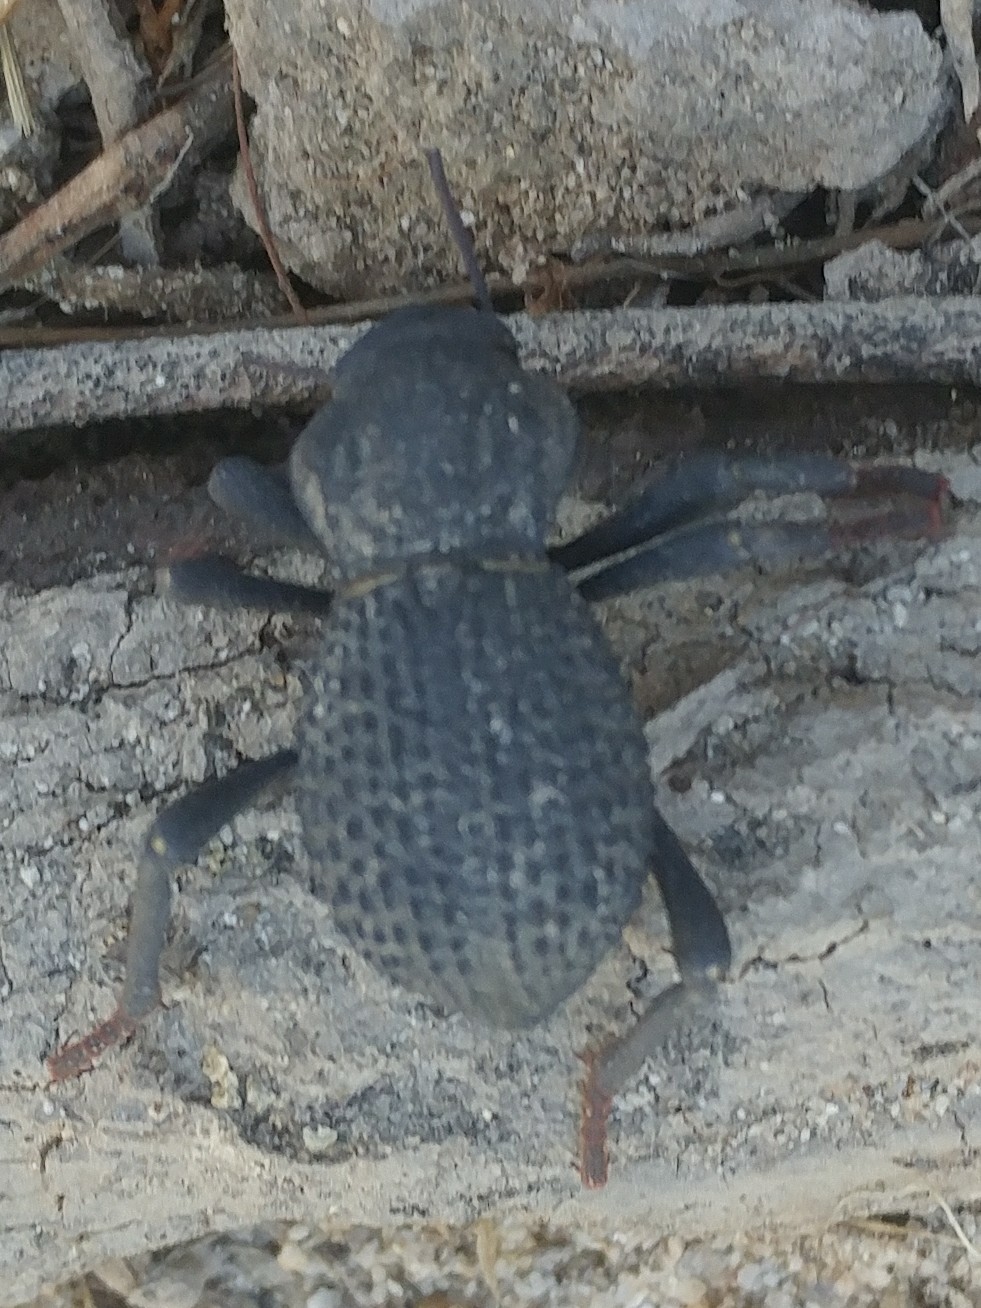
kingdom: Animalia
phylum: Arthropoda
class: Insecta
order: Coleoptera
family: Tenebrionidae
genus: Asbolus
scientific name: Asbolus verrucosus
